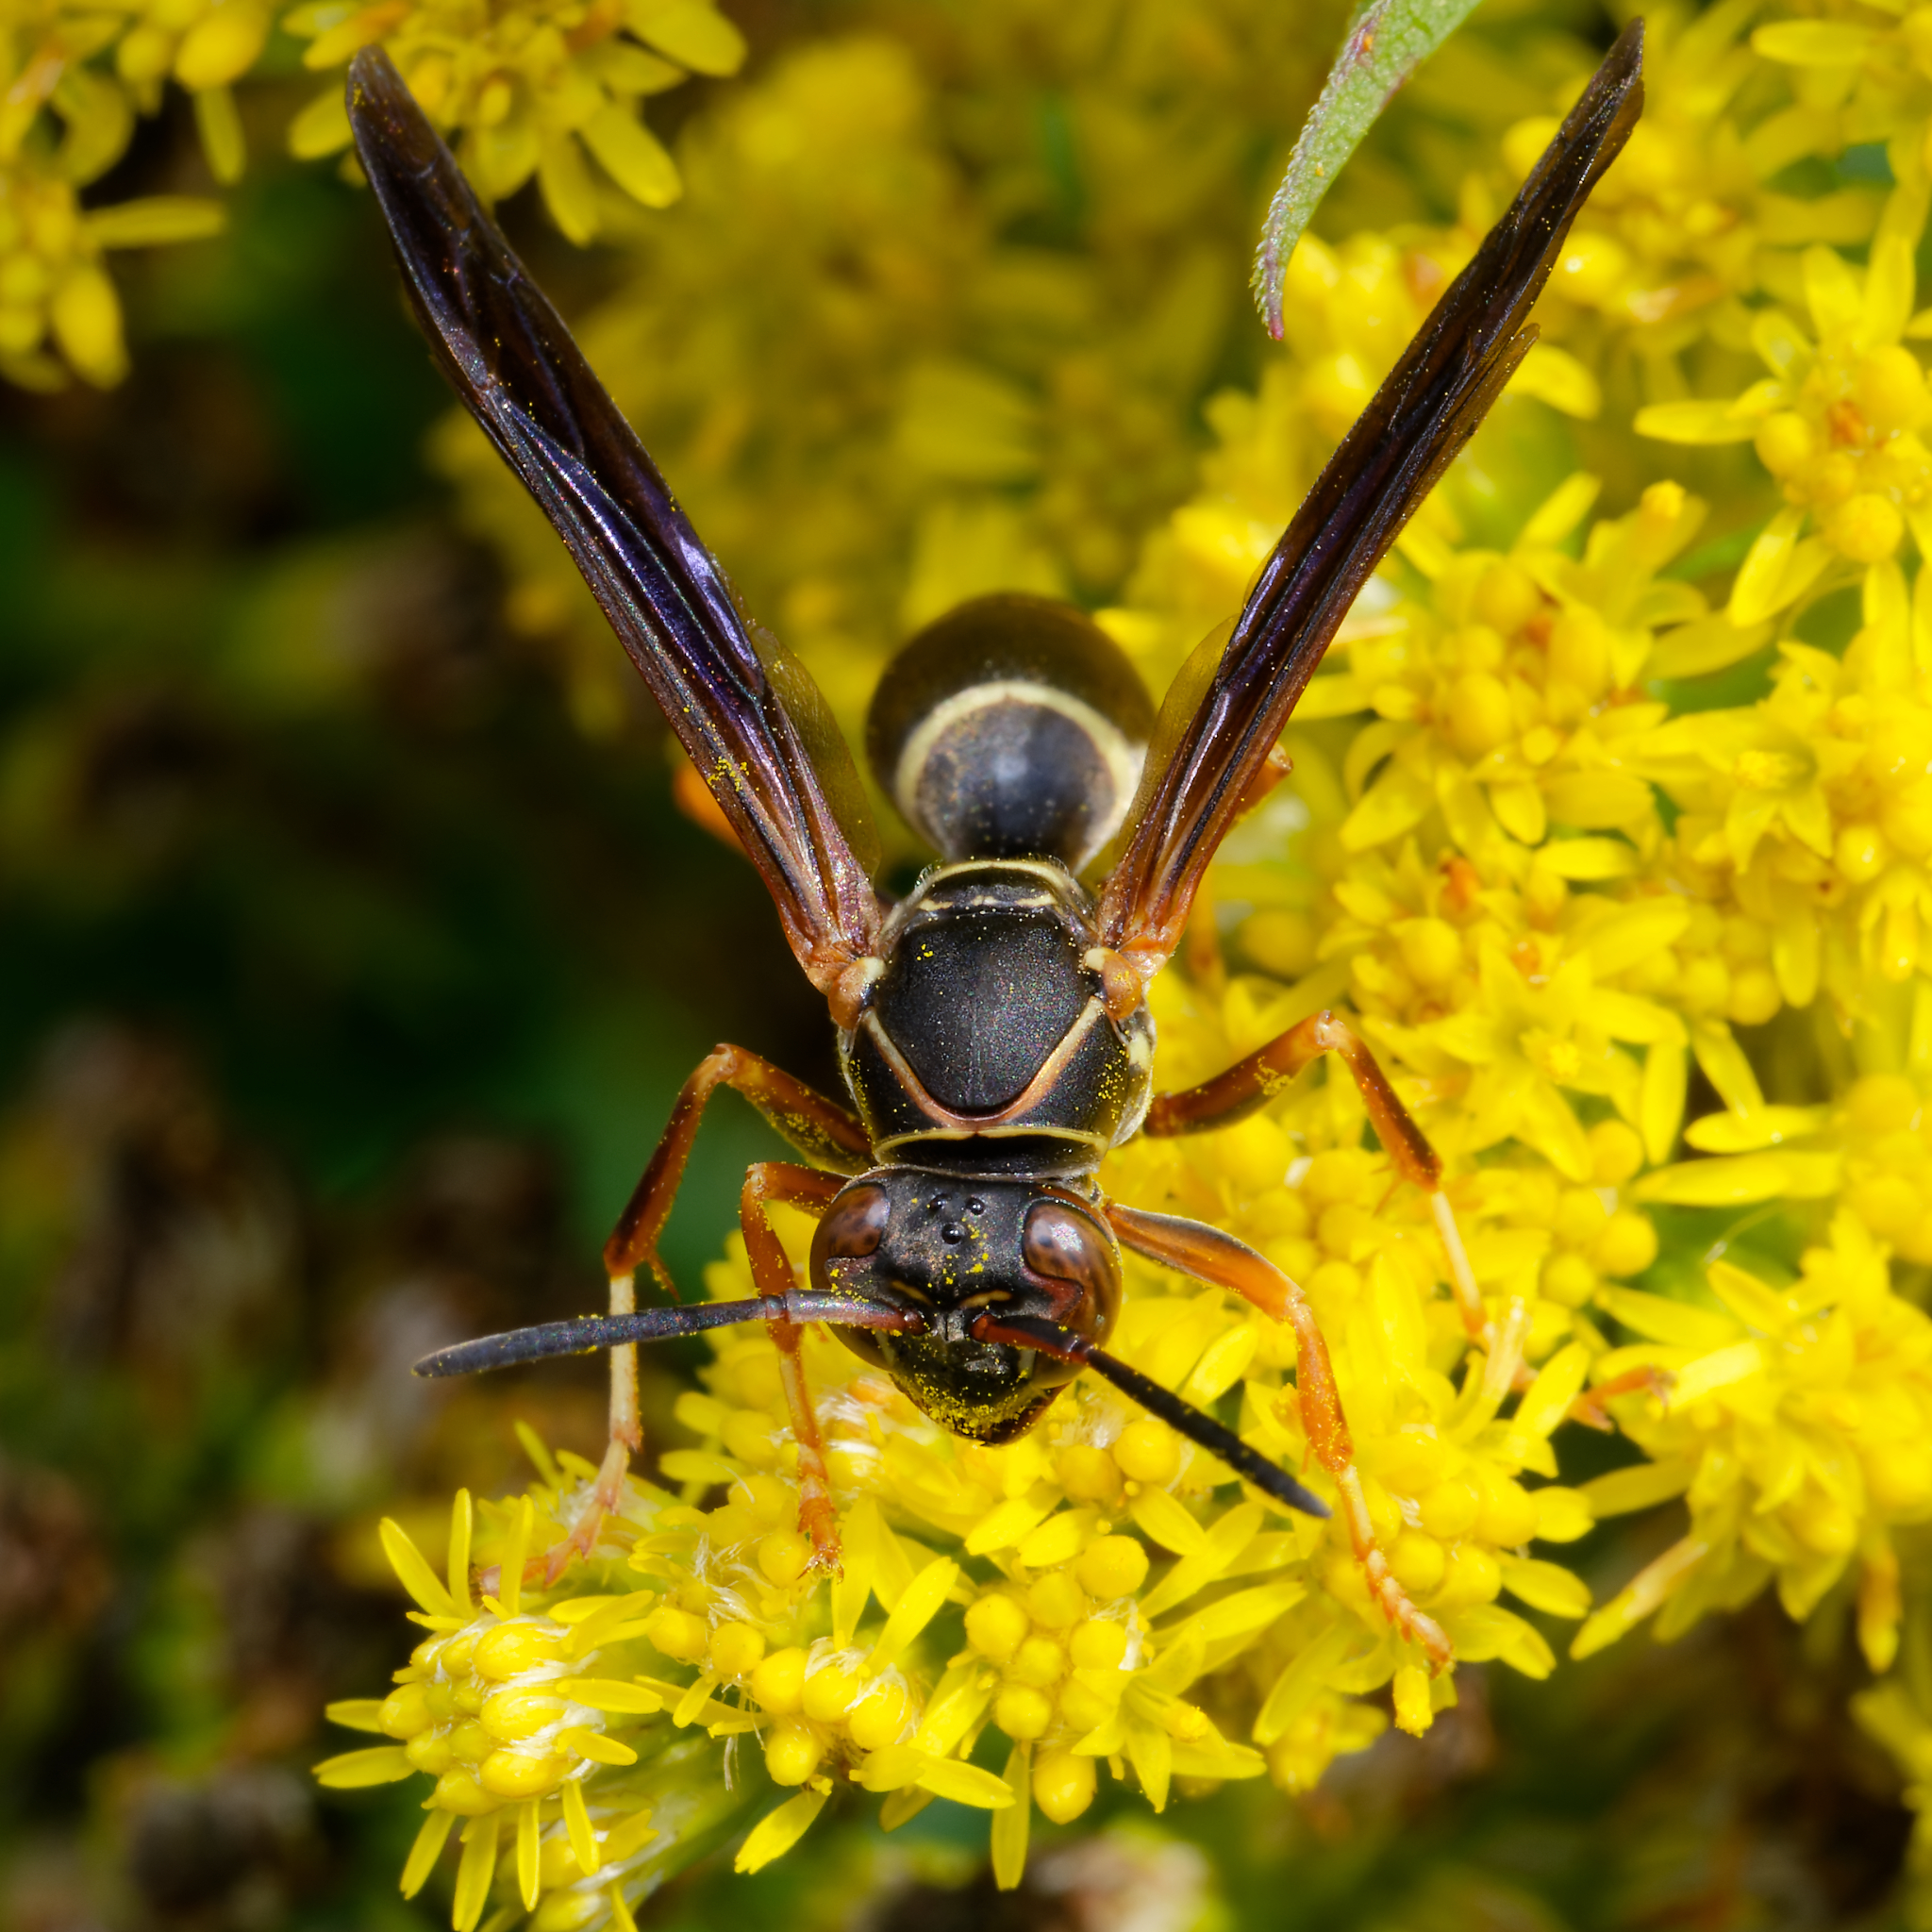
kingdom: Animalia
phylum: Arthropoda
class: Insecta
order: Hymenoptera
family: Eumenidae
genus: Polistes
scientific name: Polistes fuscatus
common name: Dark paper wasp
